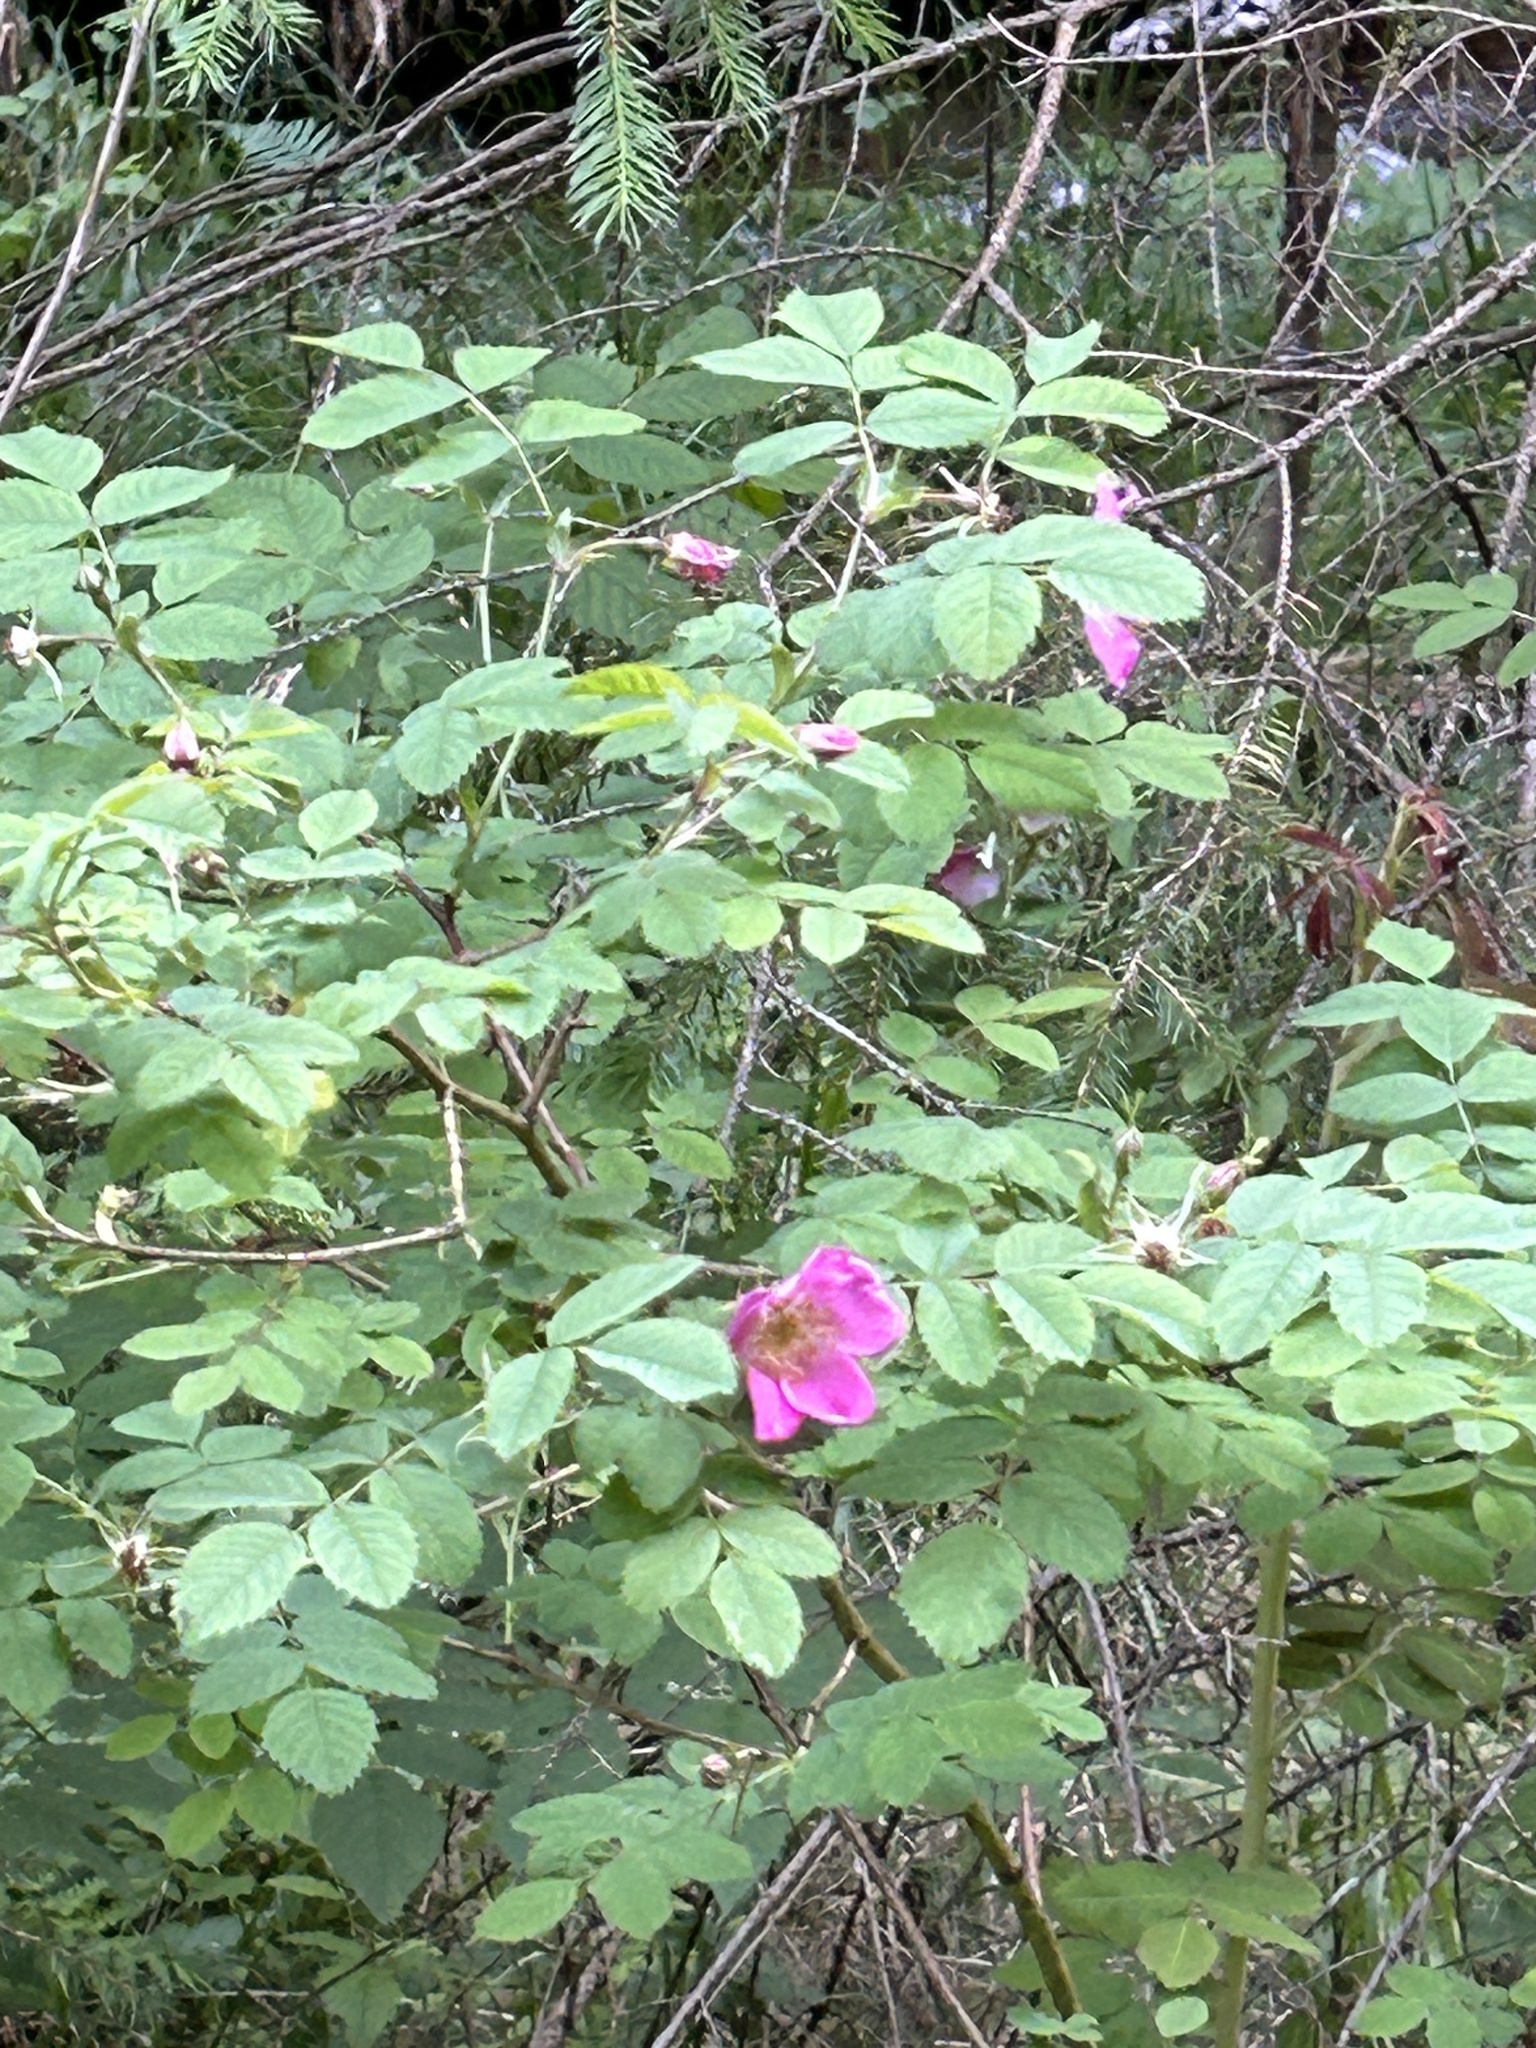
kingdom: Plantae
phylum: Tracheophyta
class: Magnoliopsida
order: Rosales
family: Rosaceae
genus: Rosa
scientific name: Rosa pendulina
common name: Alpine rose
